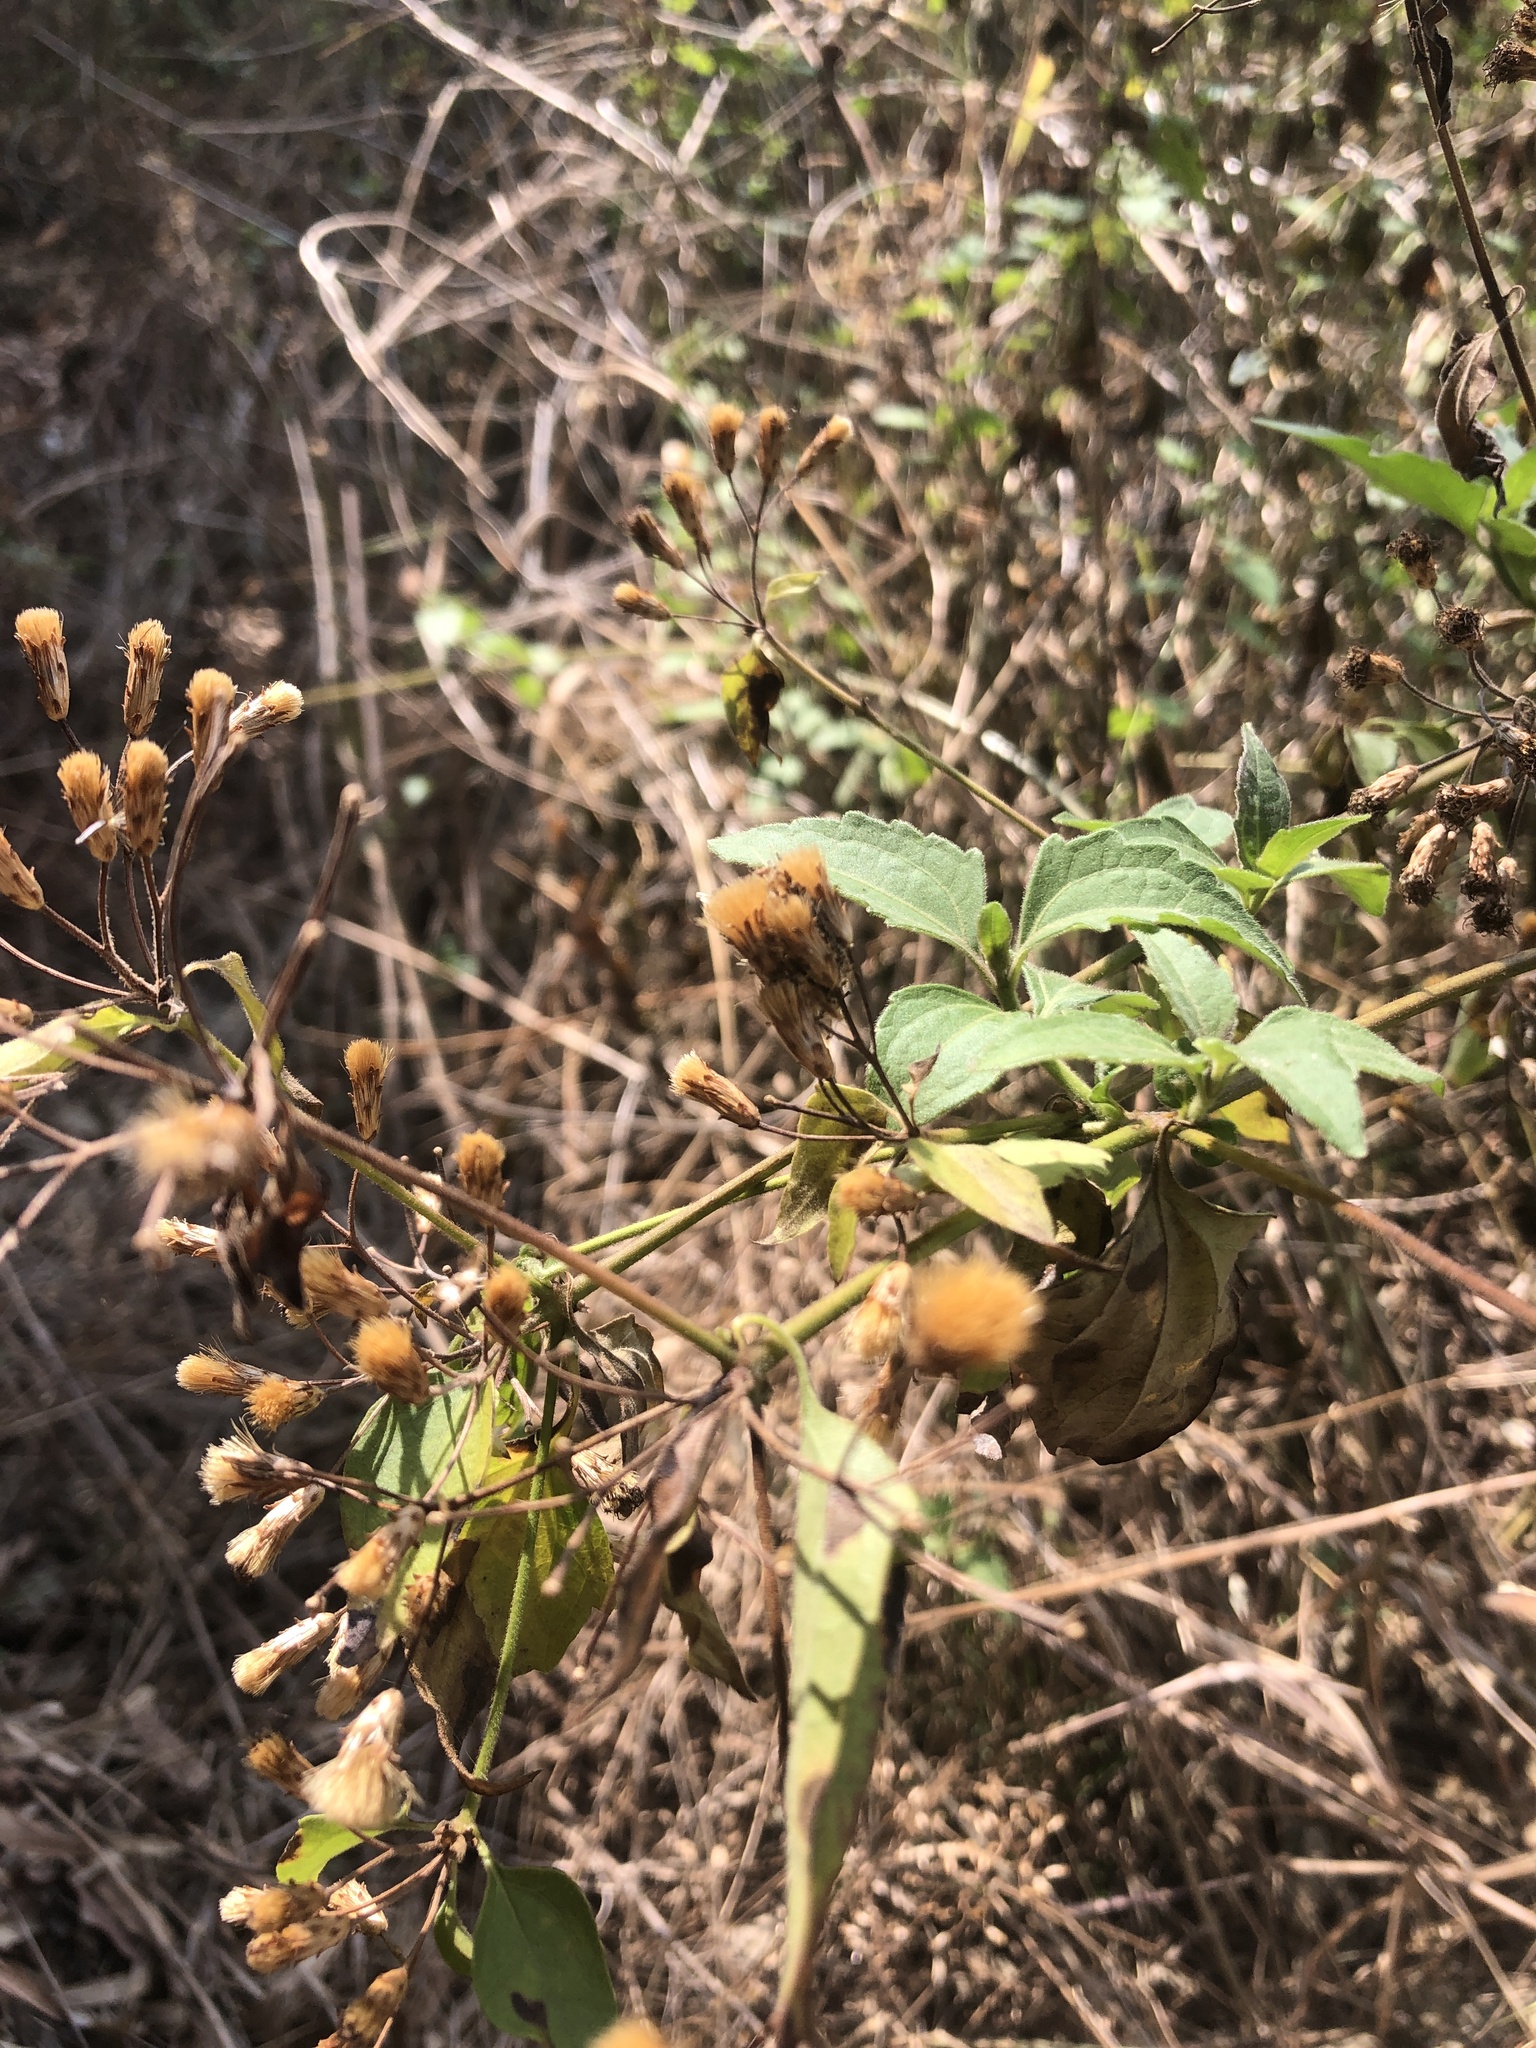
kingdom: Plantae
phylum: Tracheophyta
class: Magnoliopsida
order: Asterales
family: Asteraceae
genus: Chromolaena
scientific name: Chromolaena odorata
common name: Siamweed
